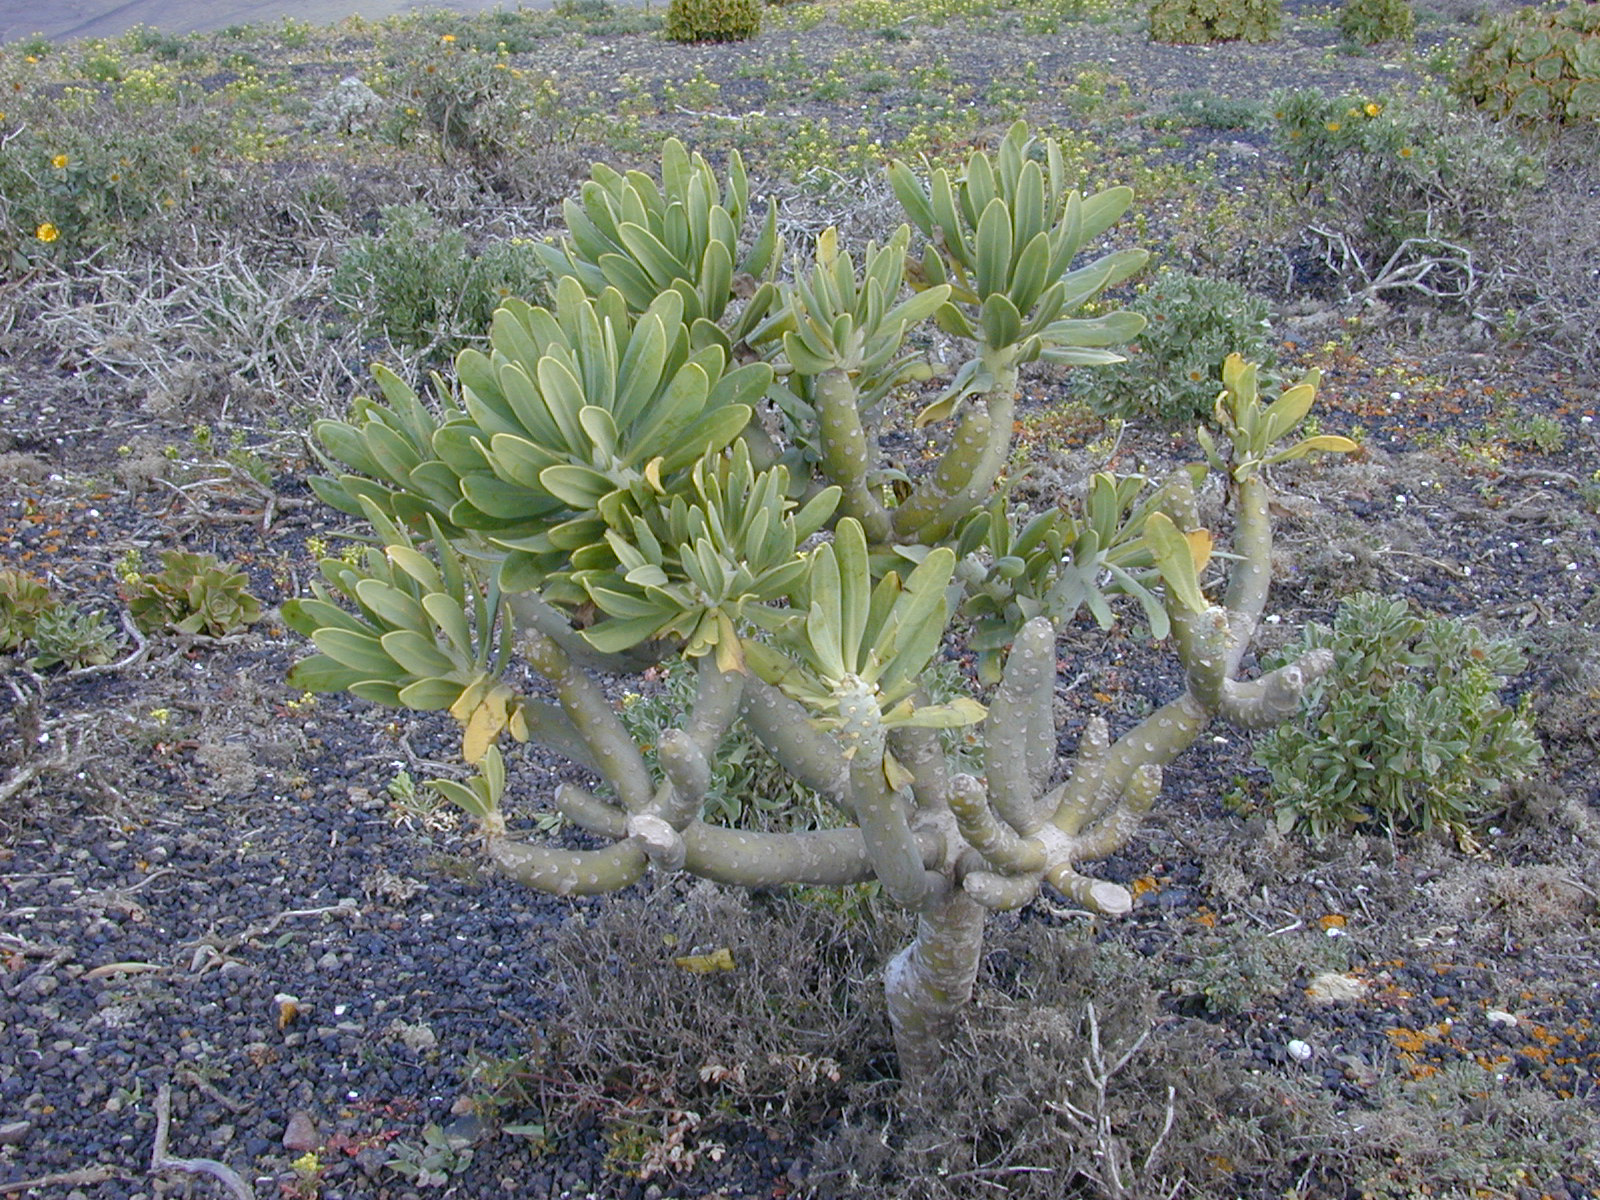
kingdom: Plantae
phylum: Tracheophyta
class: Magnoliopsida
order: Asterales
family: Asteraceae
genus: Kleinia
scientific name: Kleinia neriifolia
